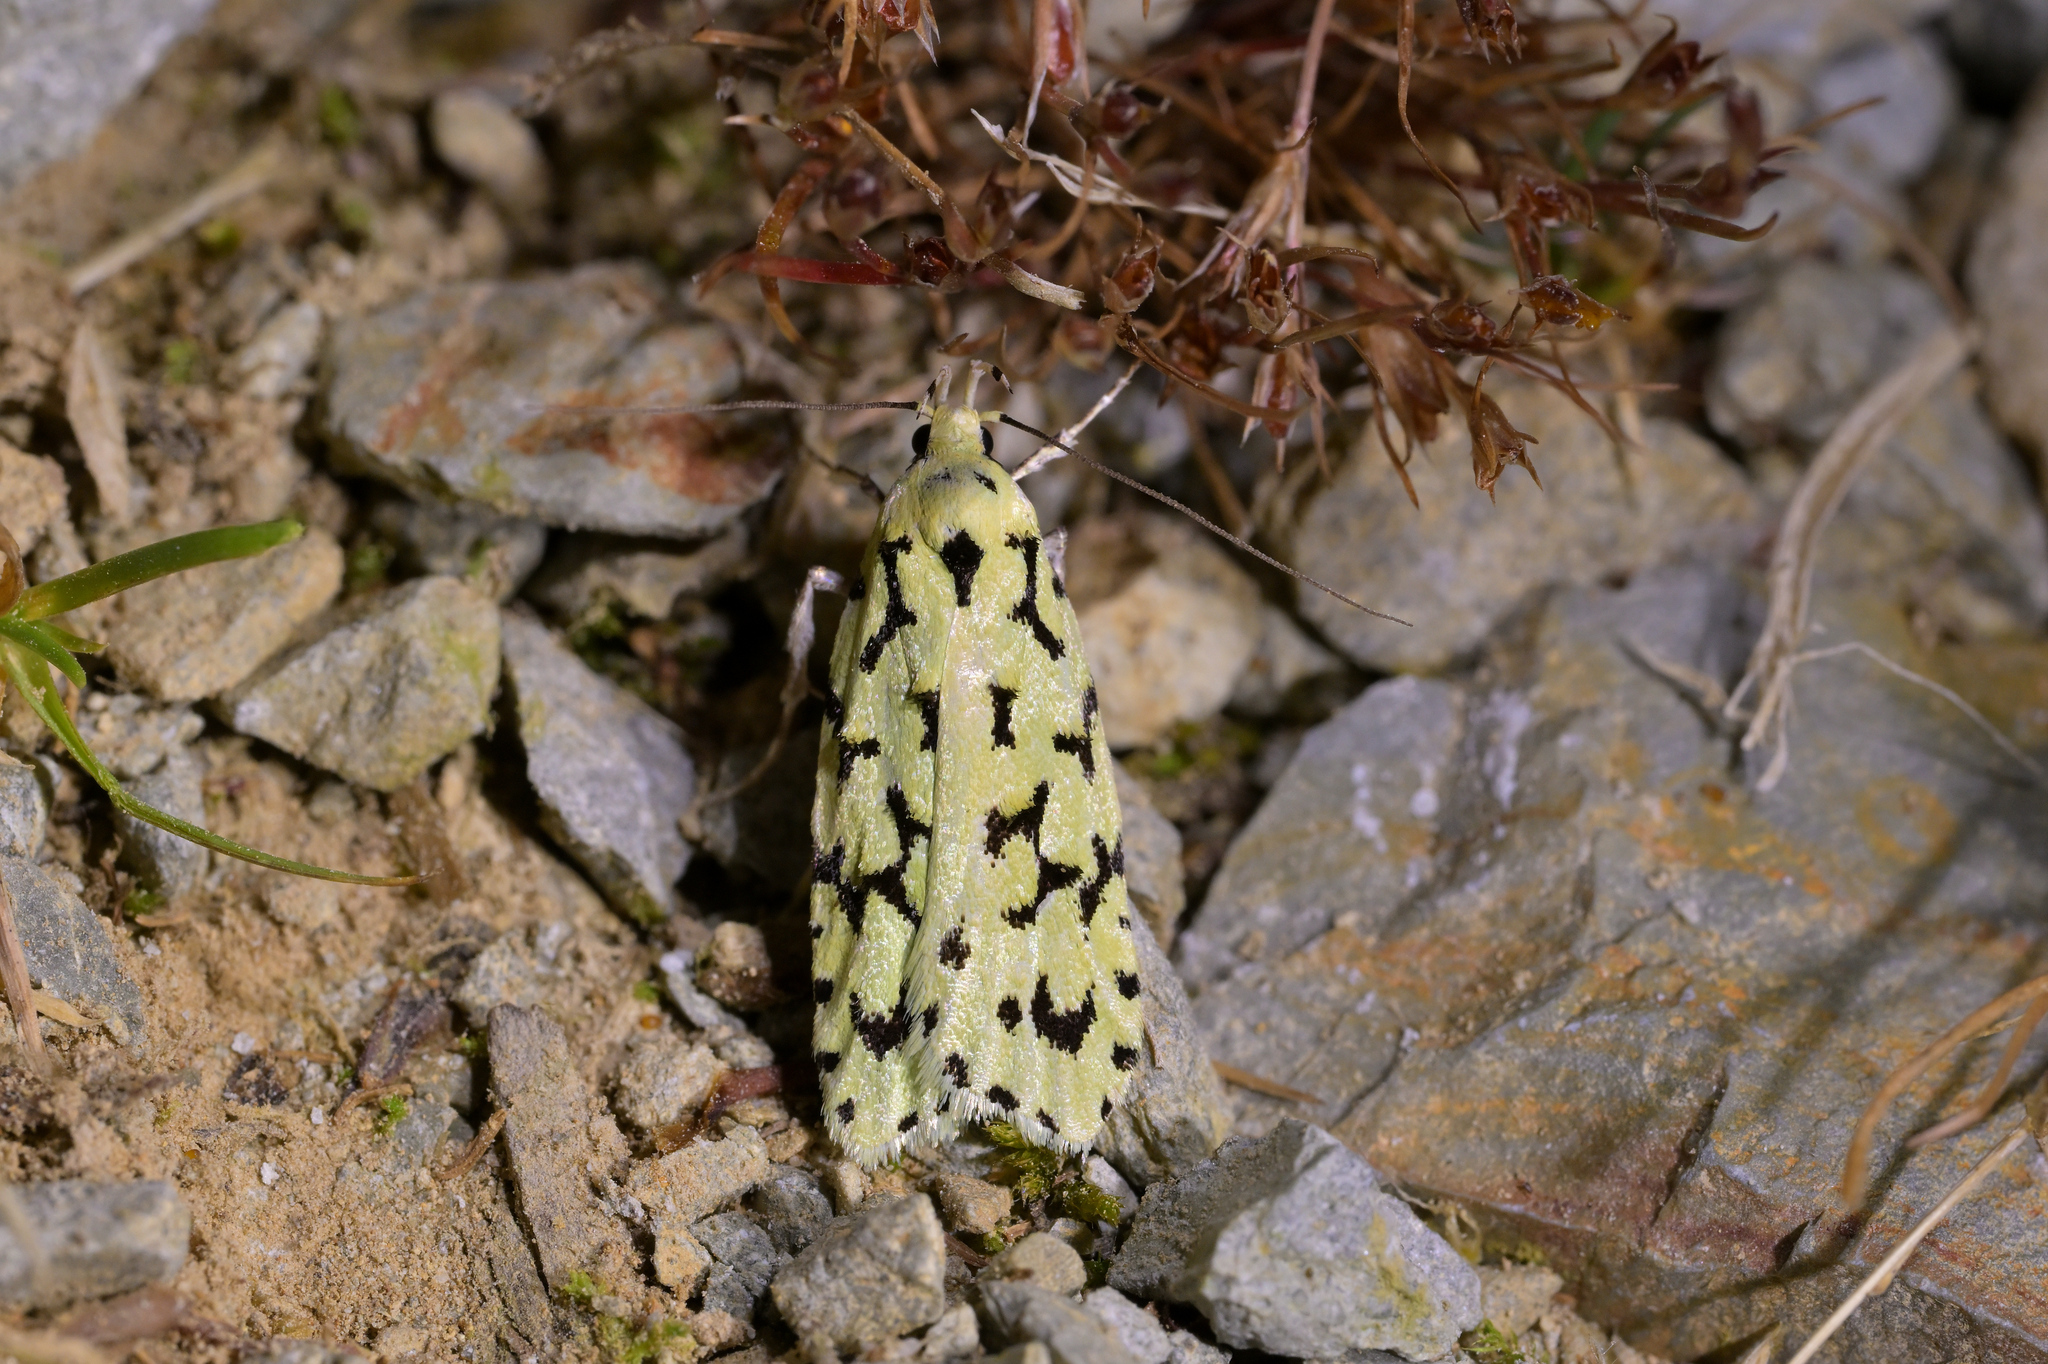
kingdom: Animalia
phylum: Arthropoda
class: Insecta
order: Lepidoptera
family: Oecophoridae
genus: Izatha
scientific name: Izatha huttoni
